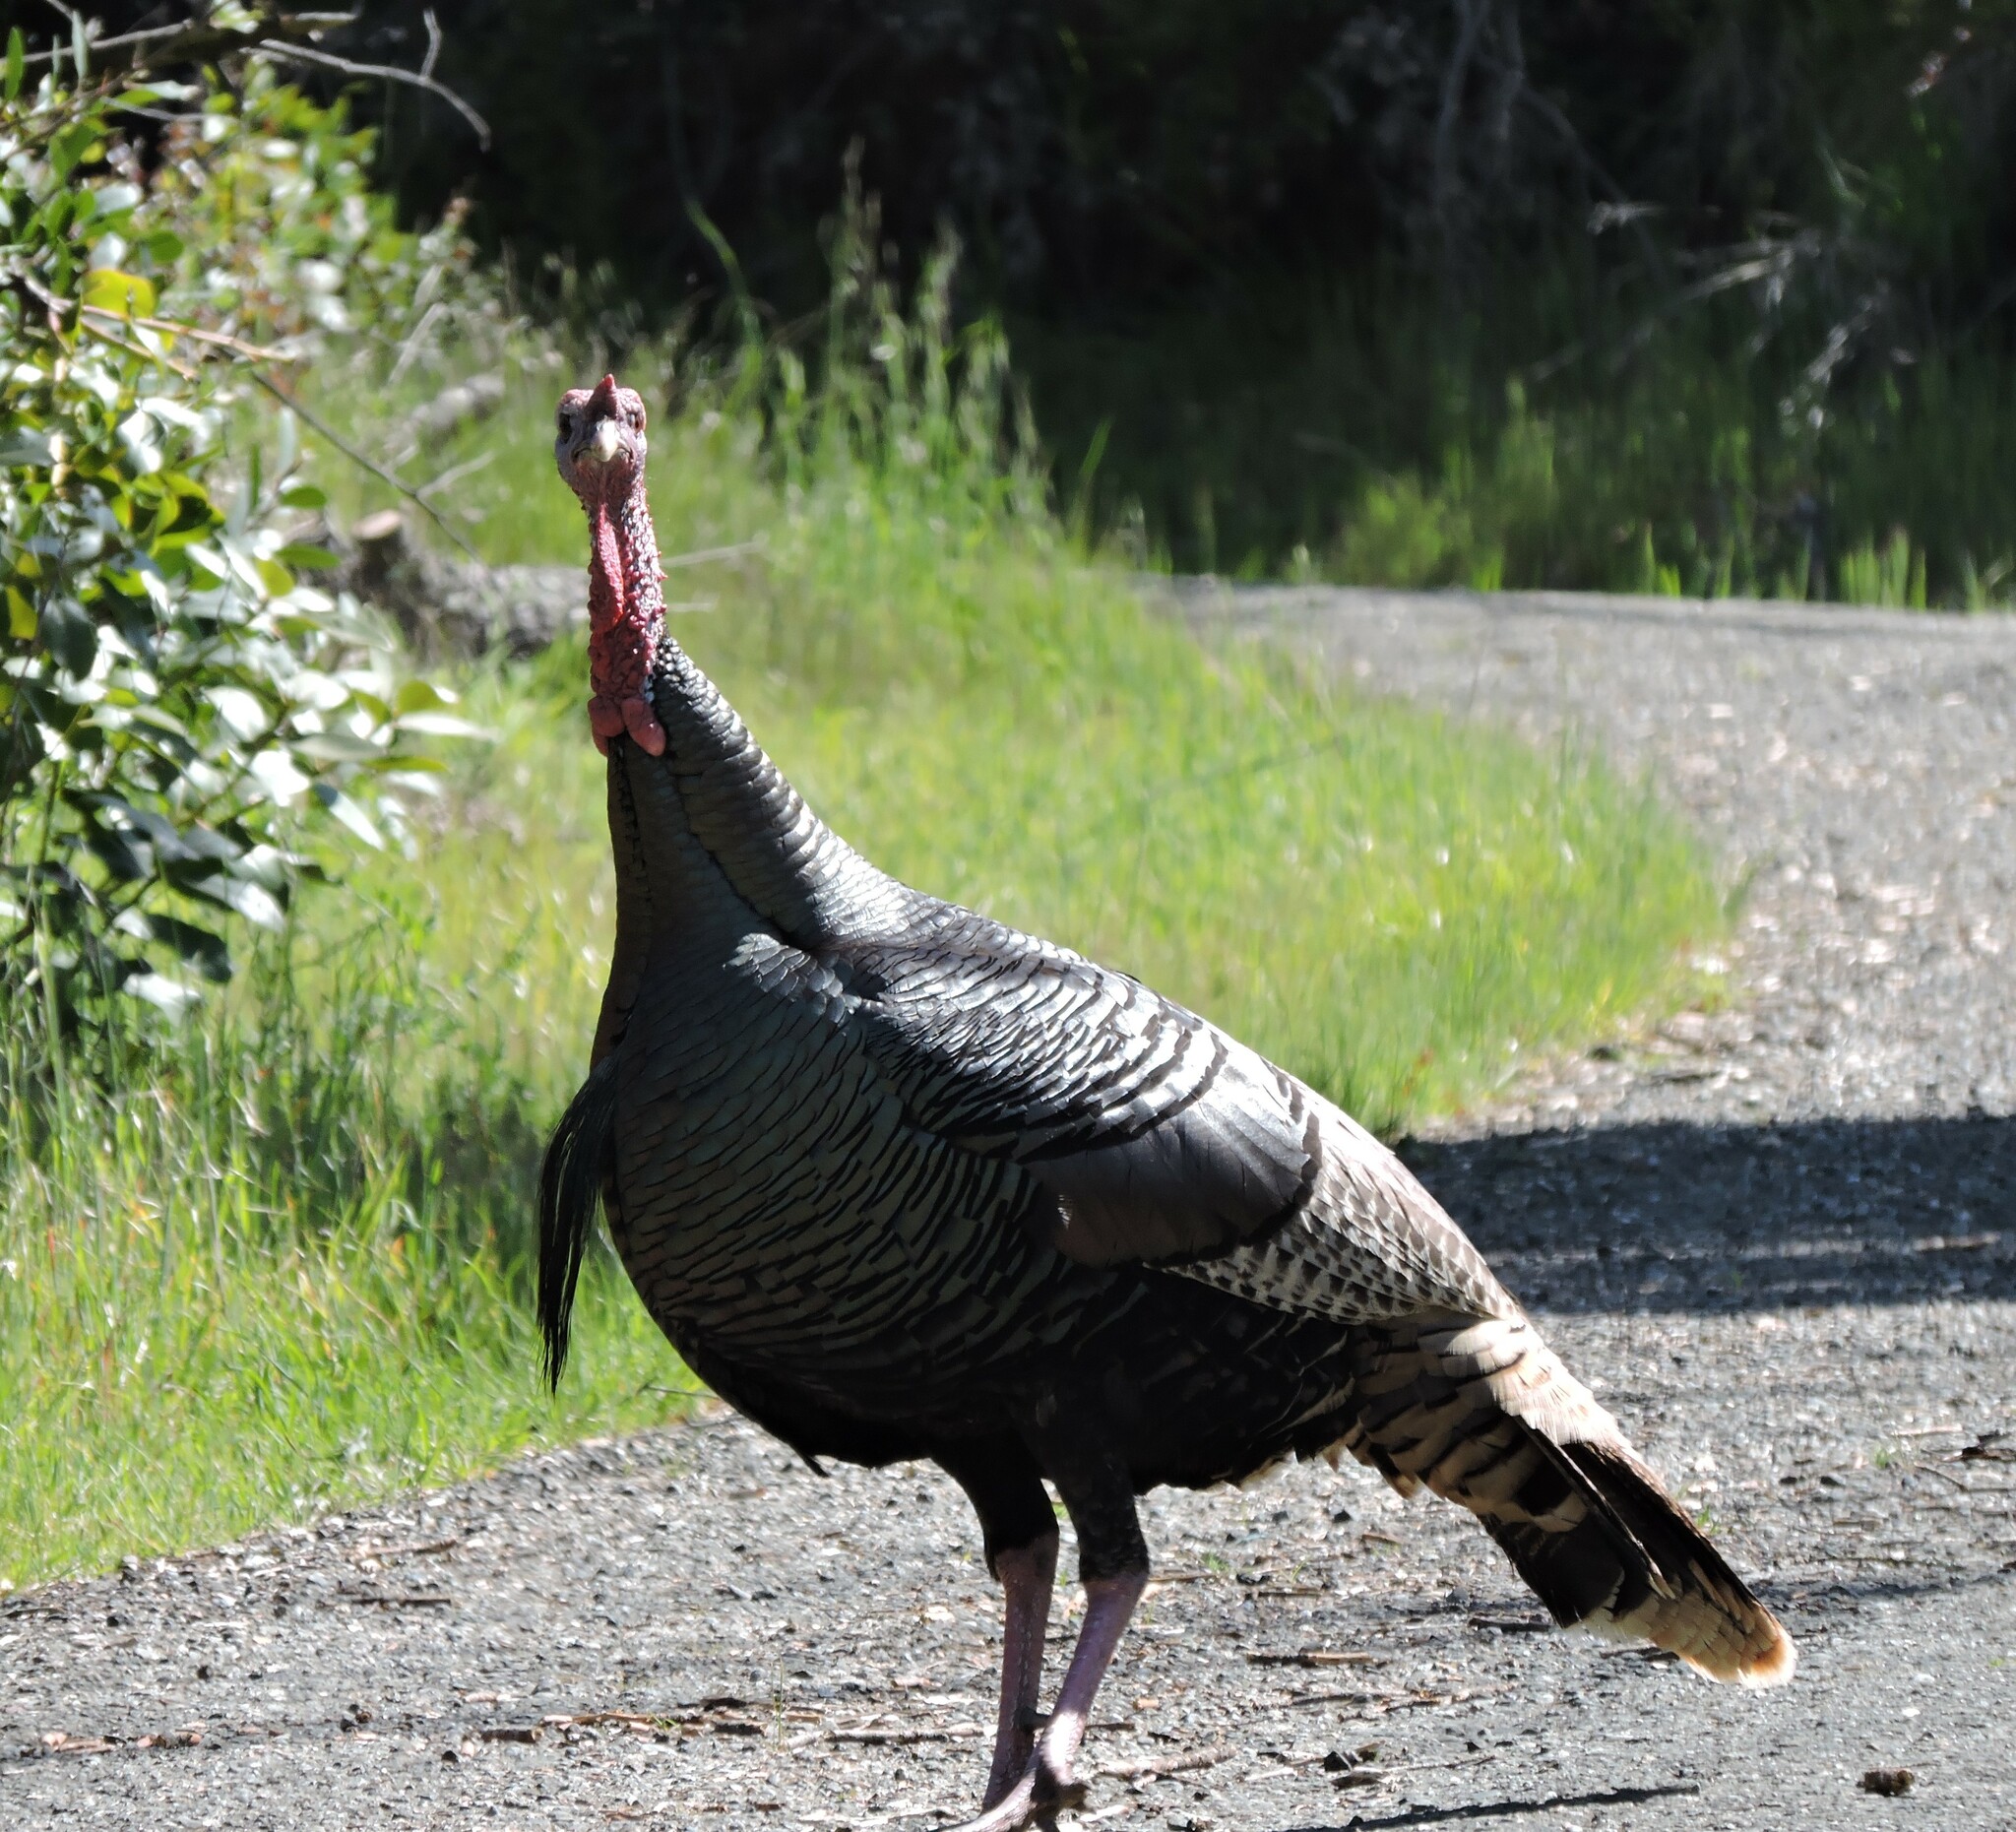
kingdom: Animalia
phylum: Chordata
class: Aves
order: Galliformes
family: Phasianidae
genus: Meleagris
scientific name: Meleagris gallopavo
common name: Wild turkey
